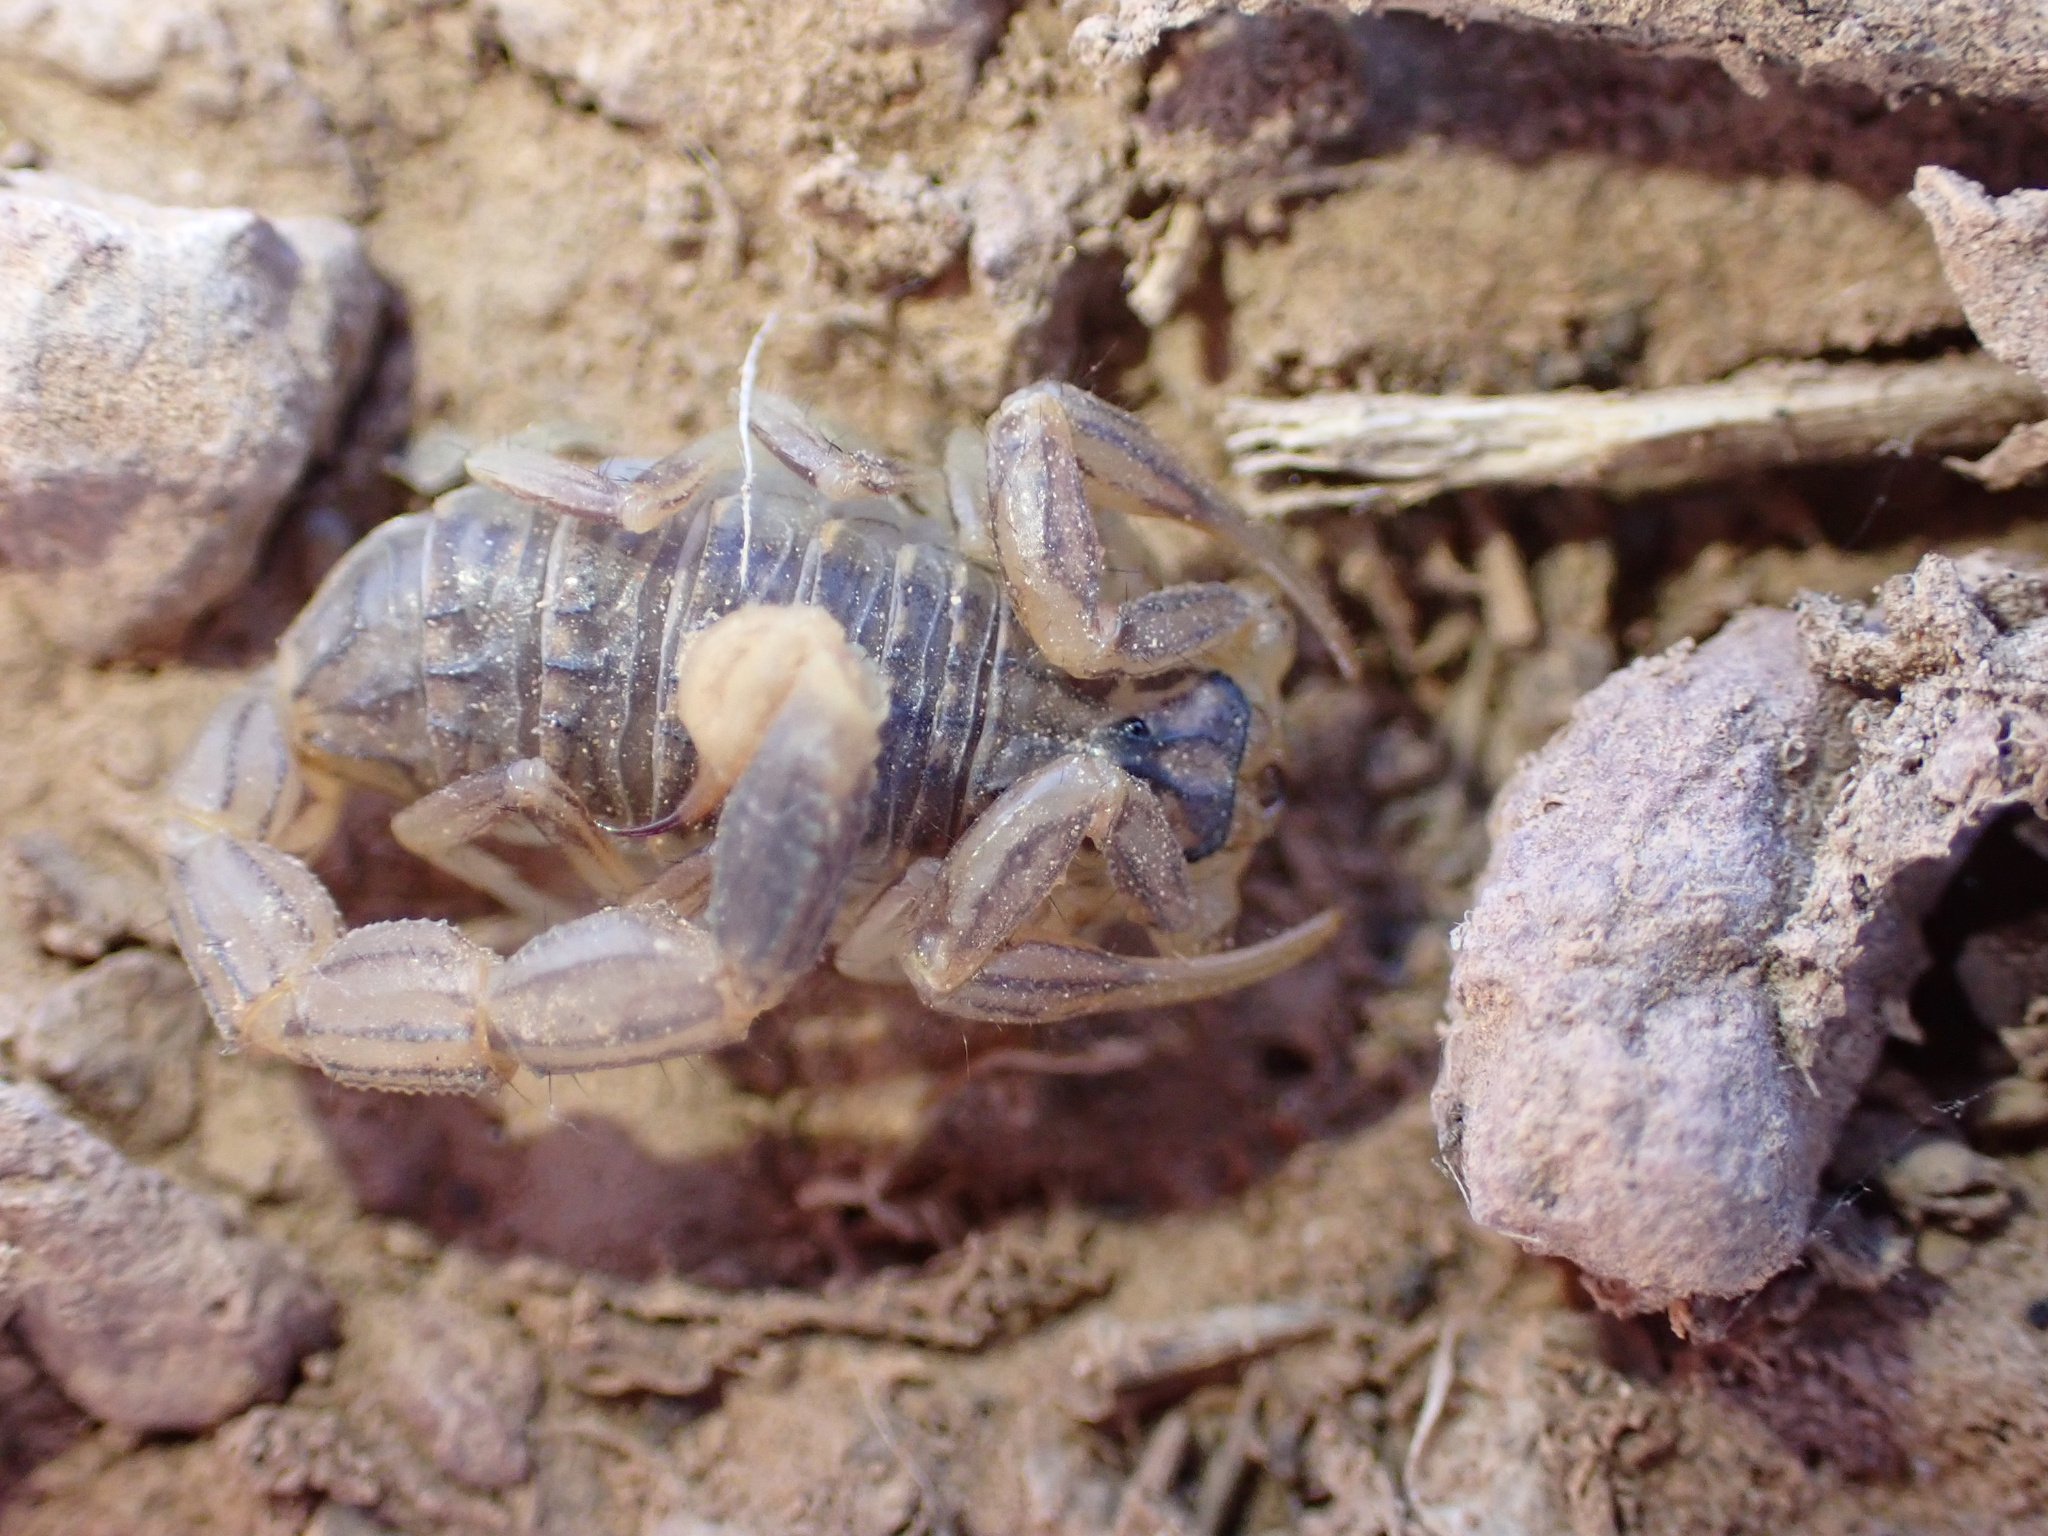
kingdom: Animalia
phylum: Arthropoda
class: Arachnida
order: Scorpiones
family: Buthidae
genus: Mesobuthus
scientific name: Mesobuthus afghanus
